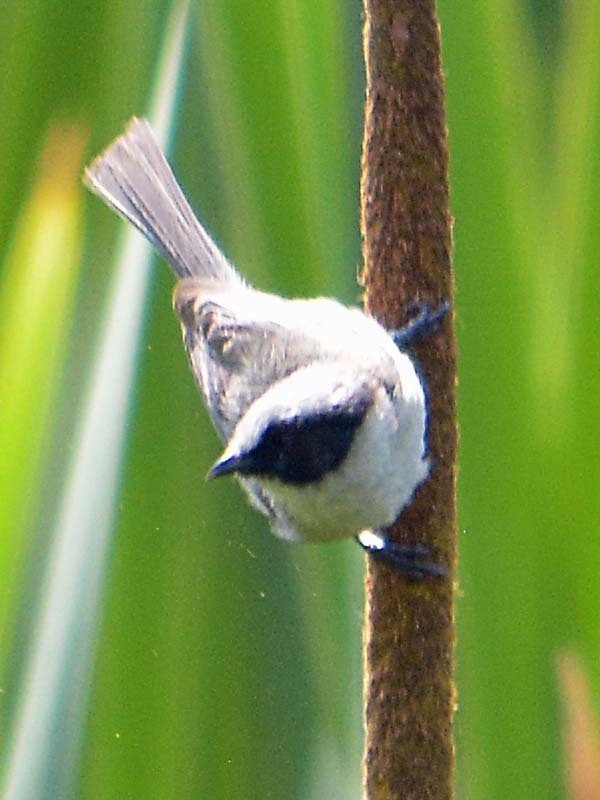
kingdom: Animalia
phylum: Chordata
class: Aves
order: Passeriformes
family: Aegithalidae
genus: Psaltriparus
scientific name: Psaltriparus minimus
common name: American bushtit
